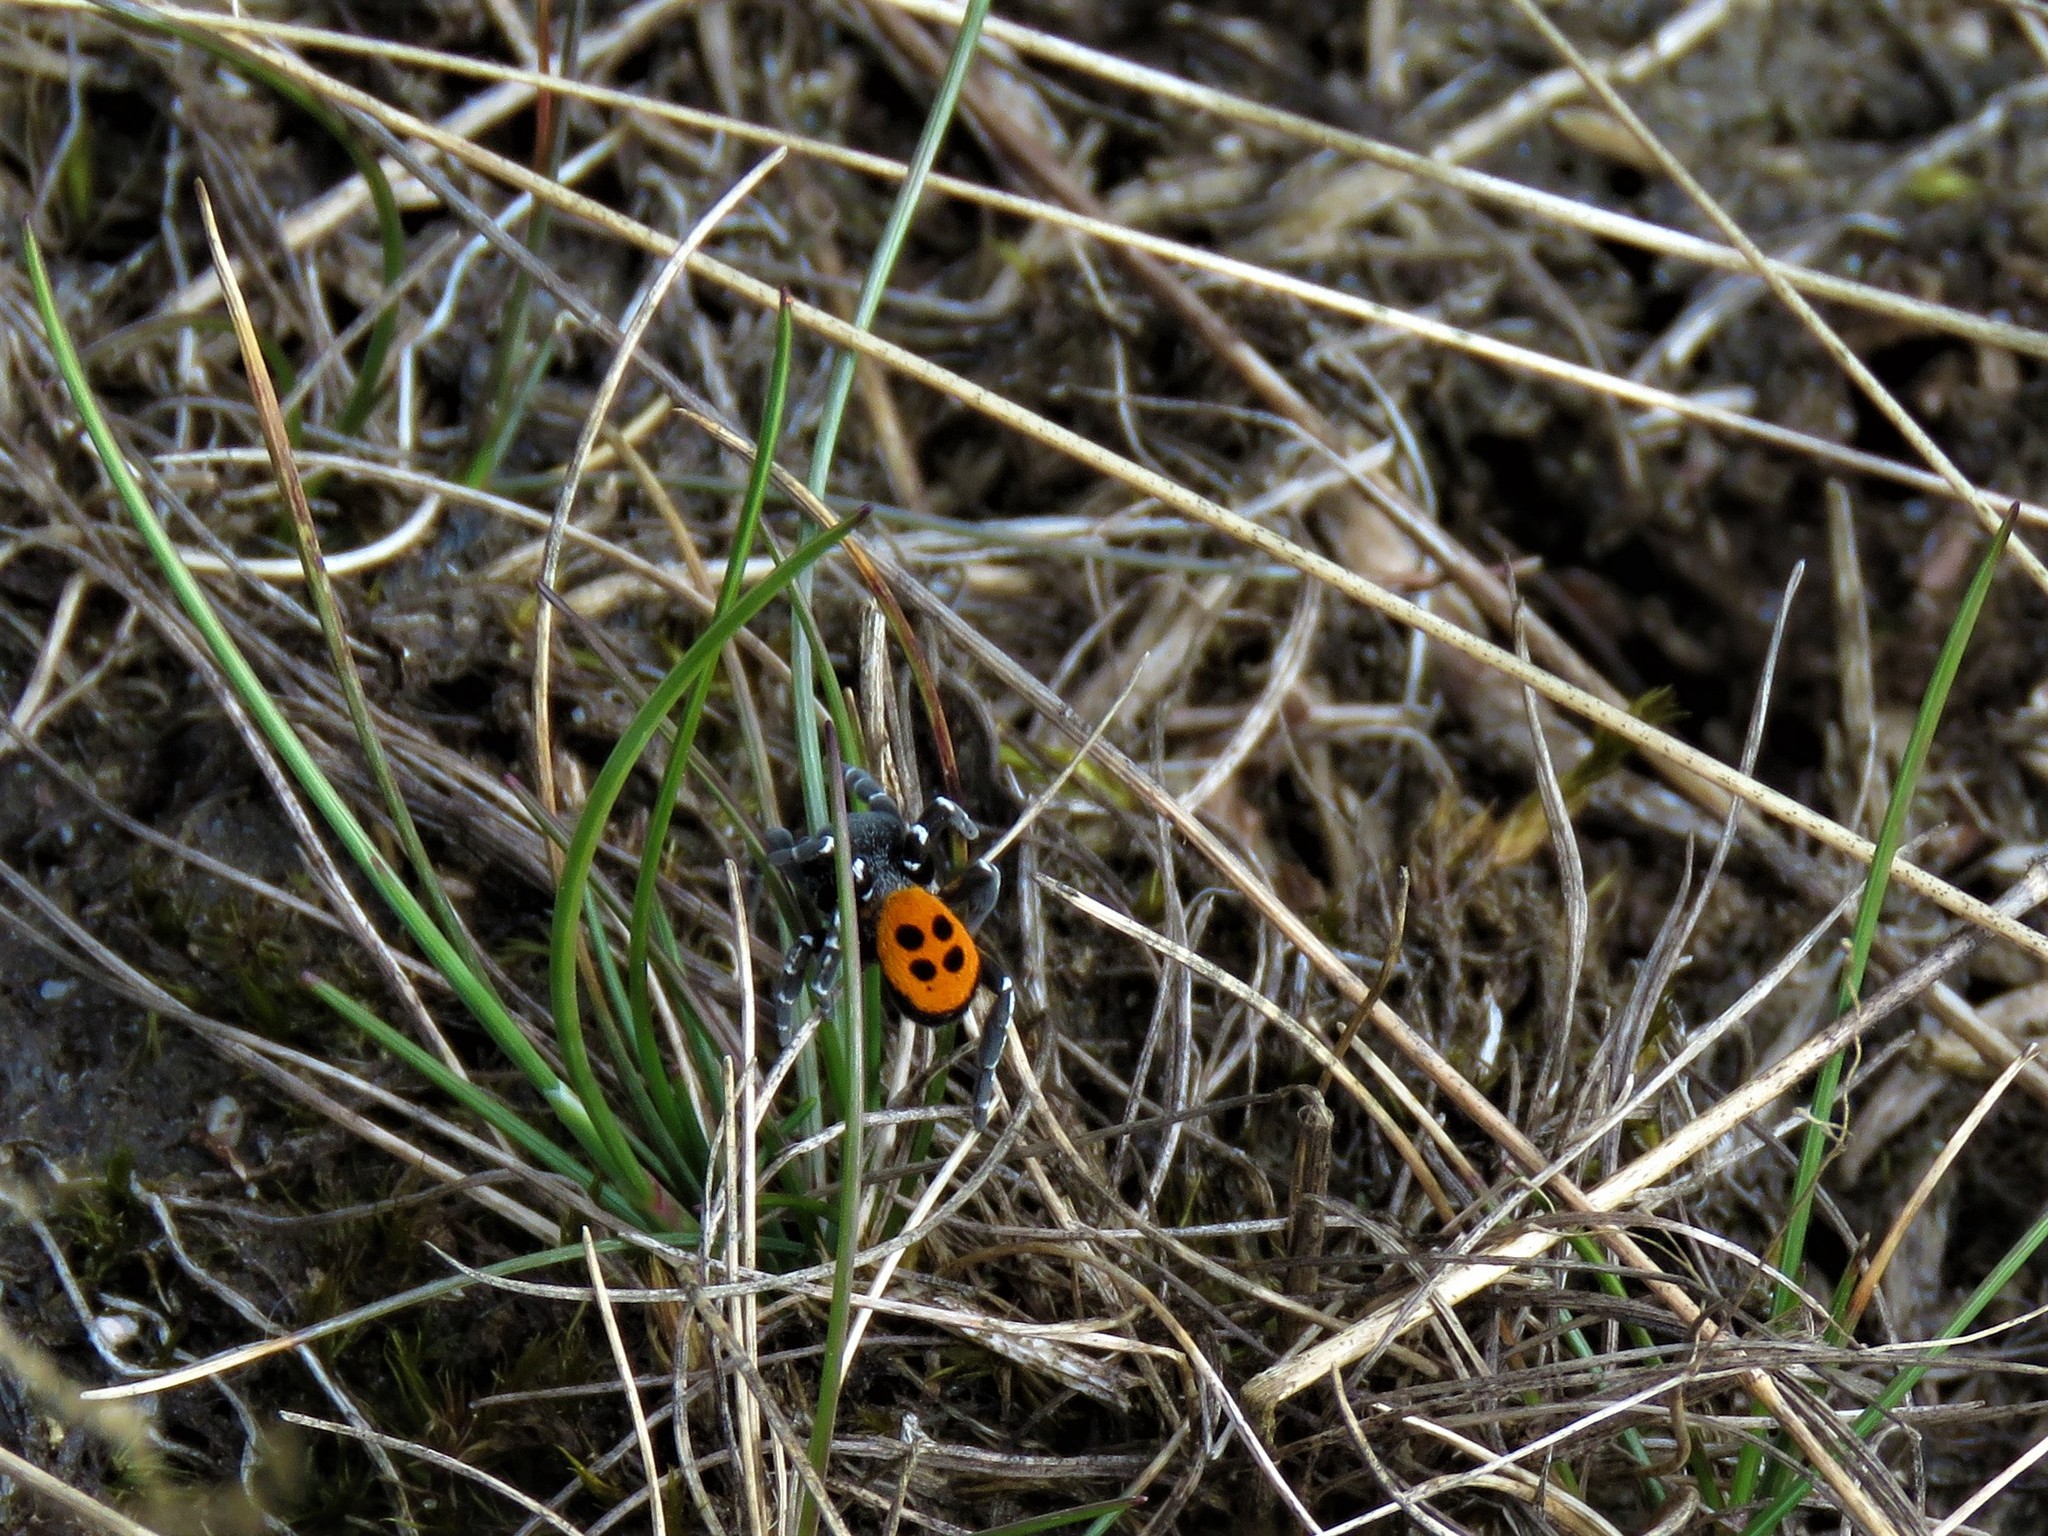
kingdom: Animalia
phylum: Arthropoda
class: Arachnida
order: Araneae
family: Eresidae
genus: Eresus
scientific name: Eresus sandaliatus
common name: Ladybird spider
